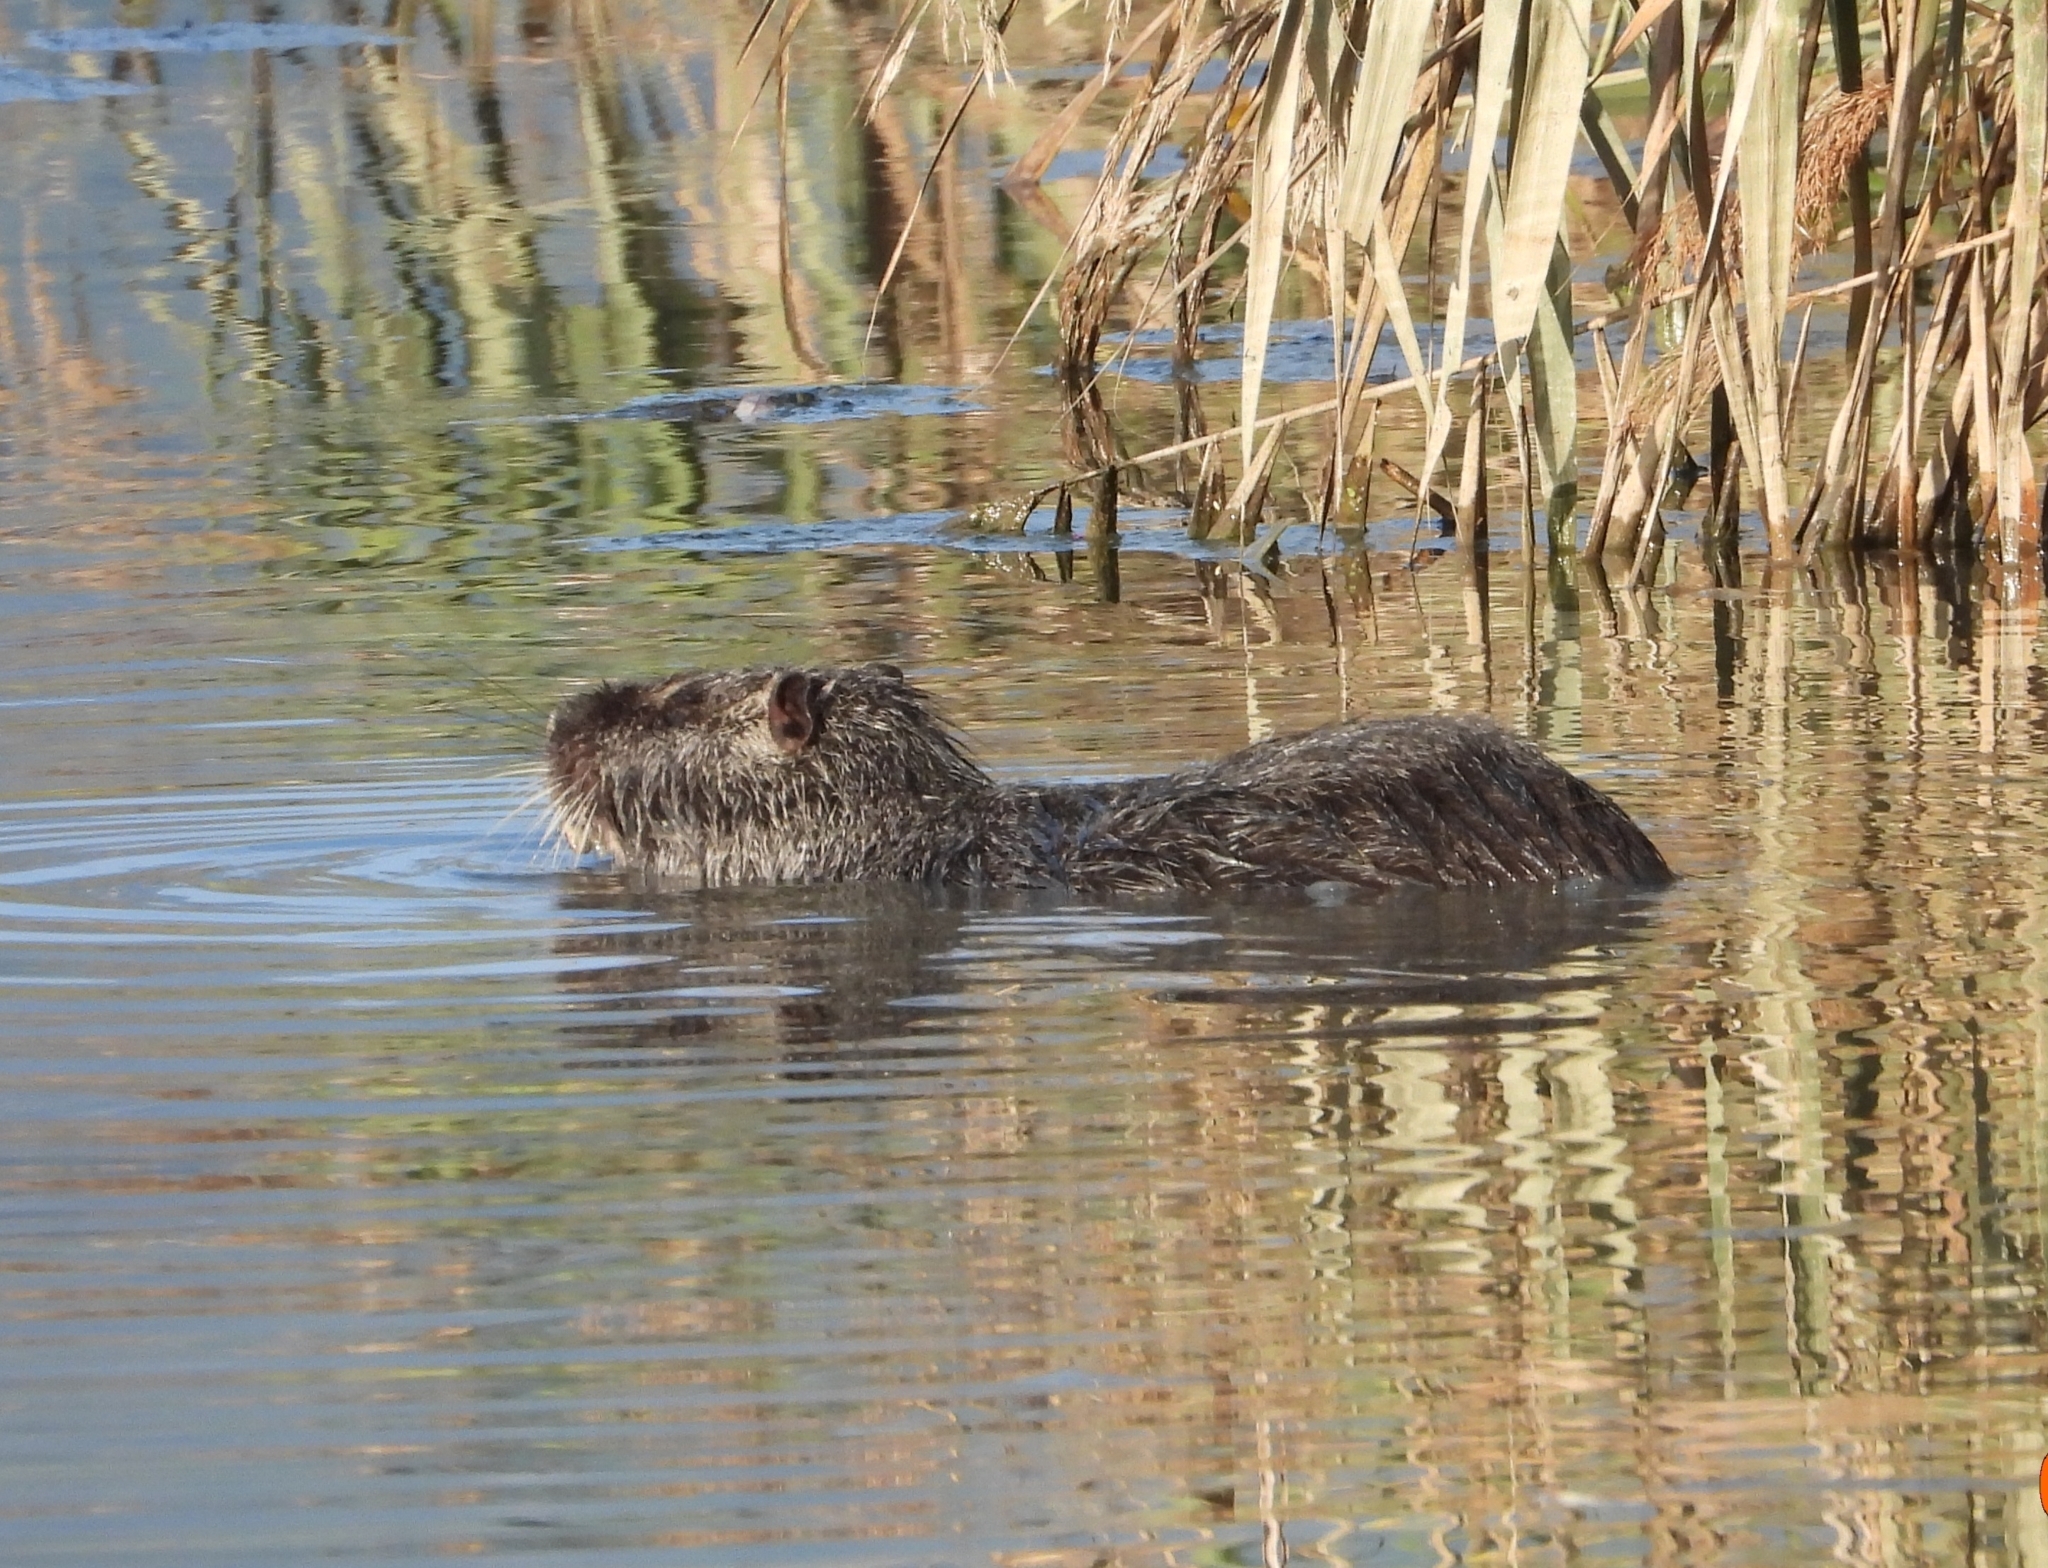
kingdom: Animalia
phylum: Chordata
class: Mammalia
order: Rodentia
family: Myocastoridae
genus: Myocastor
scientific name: Myocastor coypus
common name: Coypu
